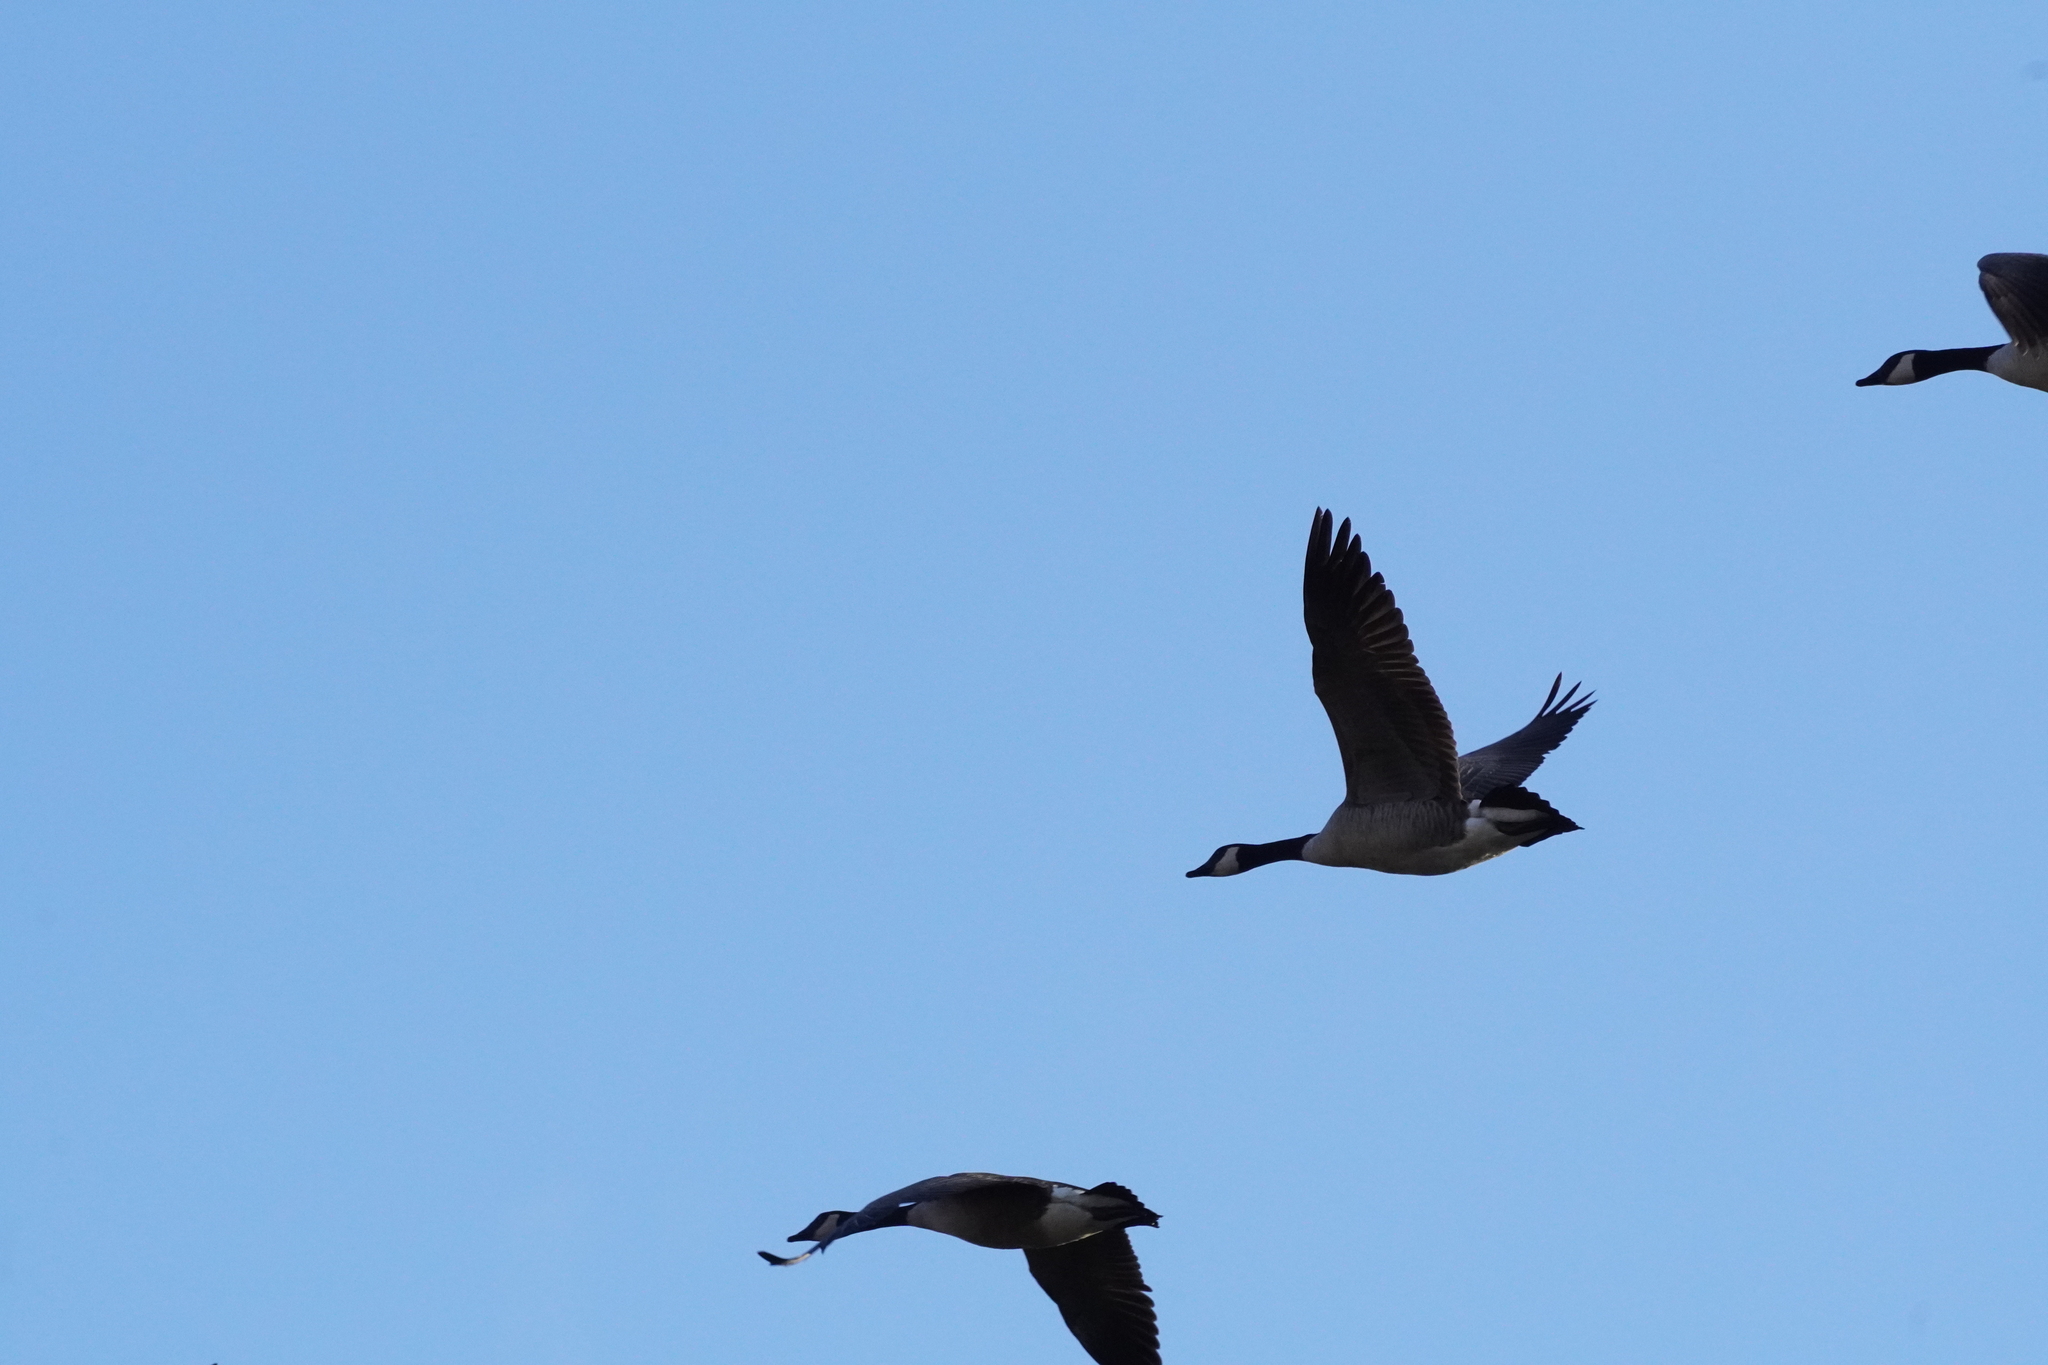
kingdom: Animalia
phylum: Chordata
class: Aves
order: Anseriformes
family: Anatidae
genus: Branta
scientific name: Branta canadensis
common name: Canada goose
